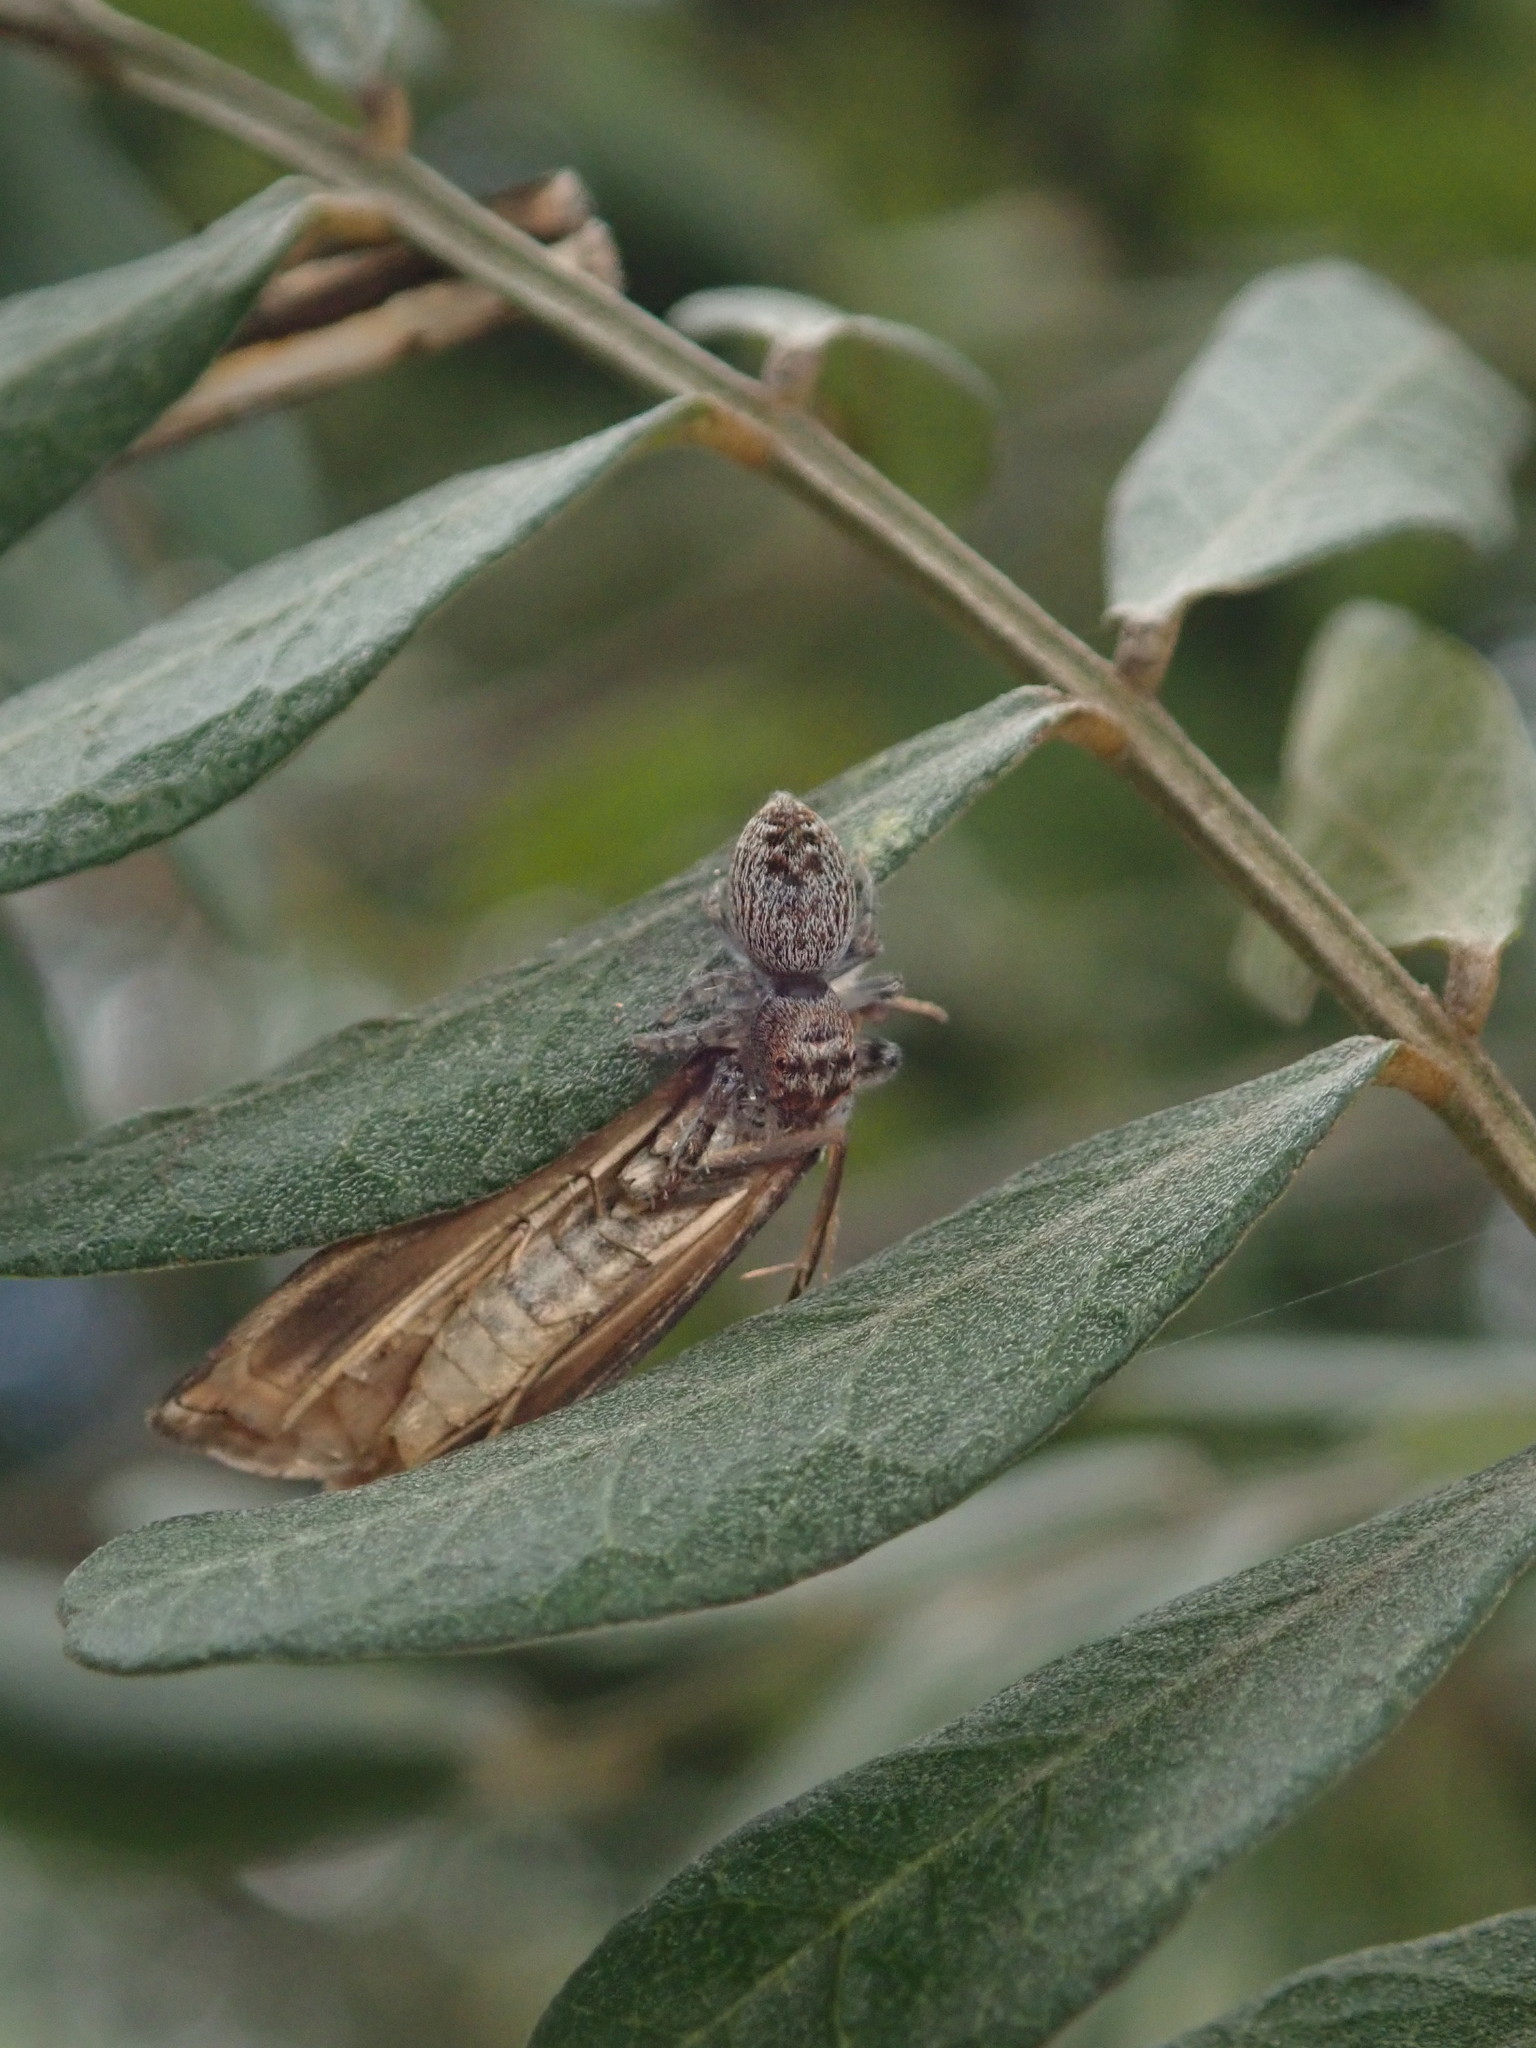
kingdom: Animalia
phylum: Arthropoda
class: Arachnida
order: Araneae
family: Salticidae
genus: Opisthoncus
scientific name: Opisthoncus polyphemus
